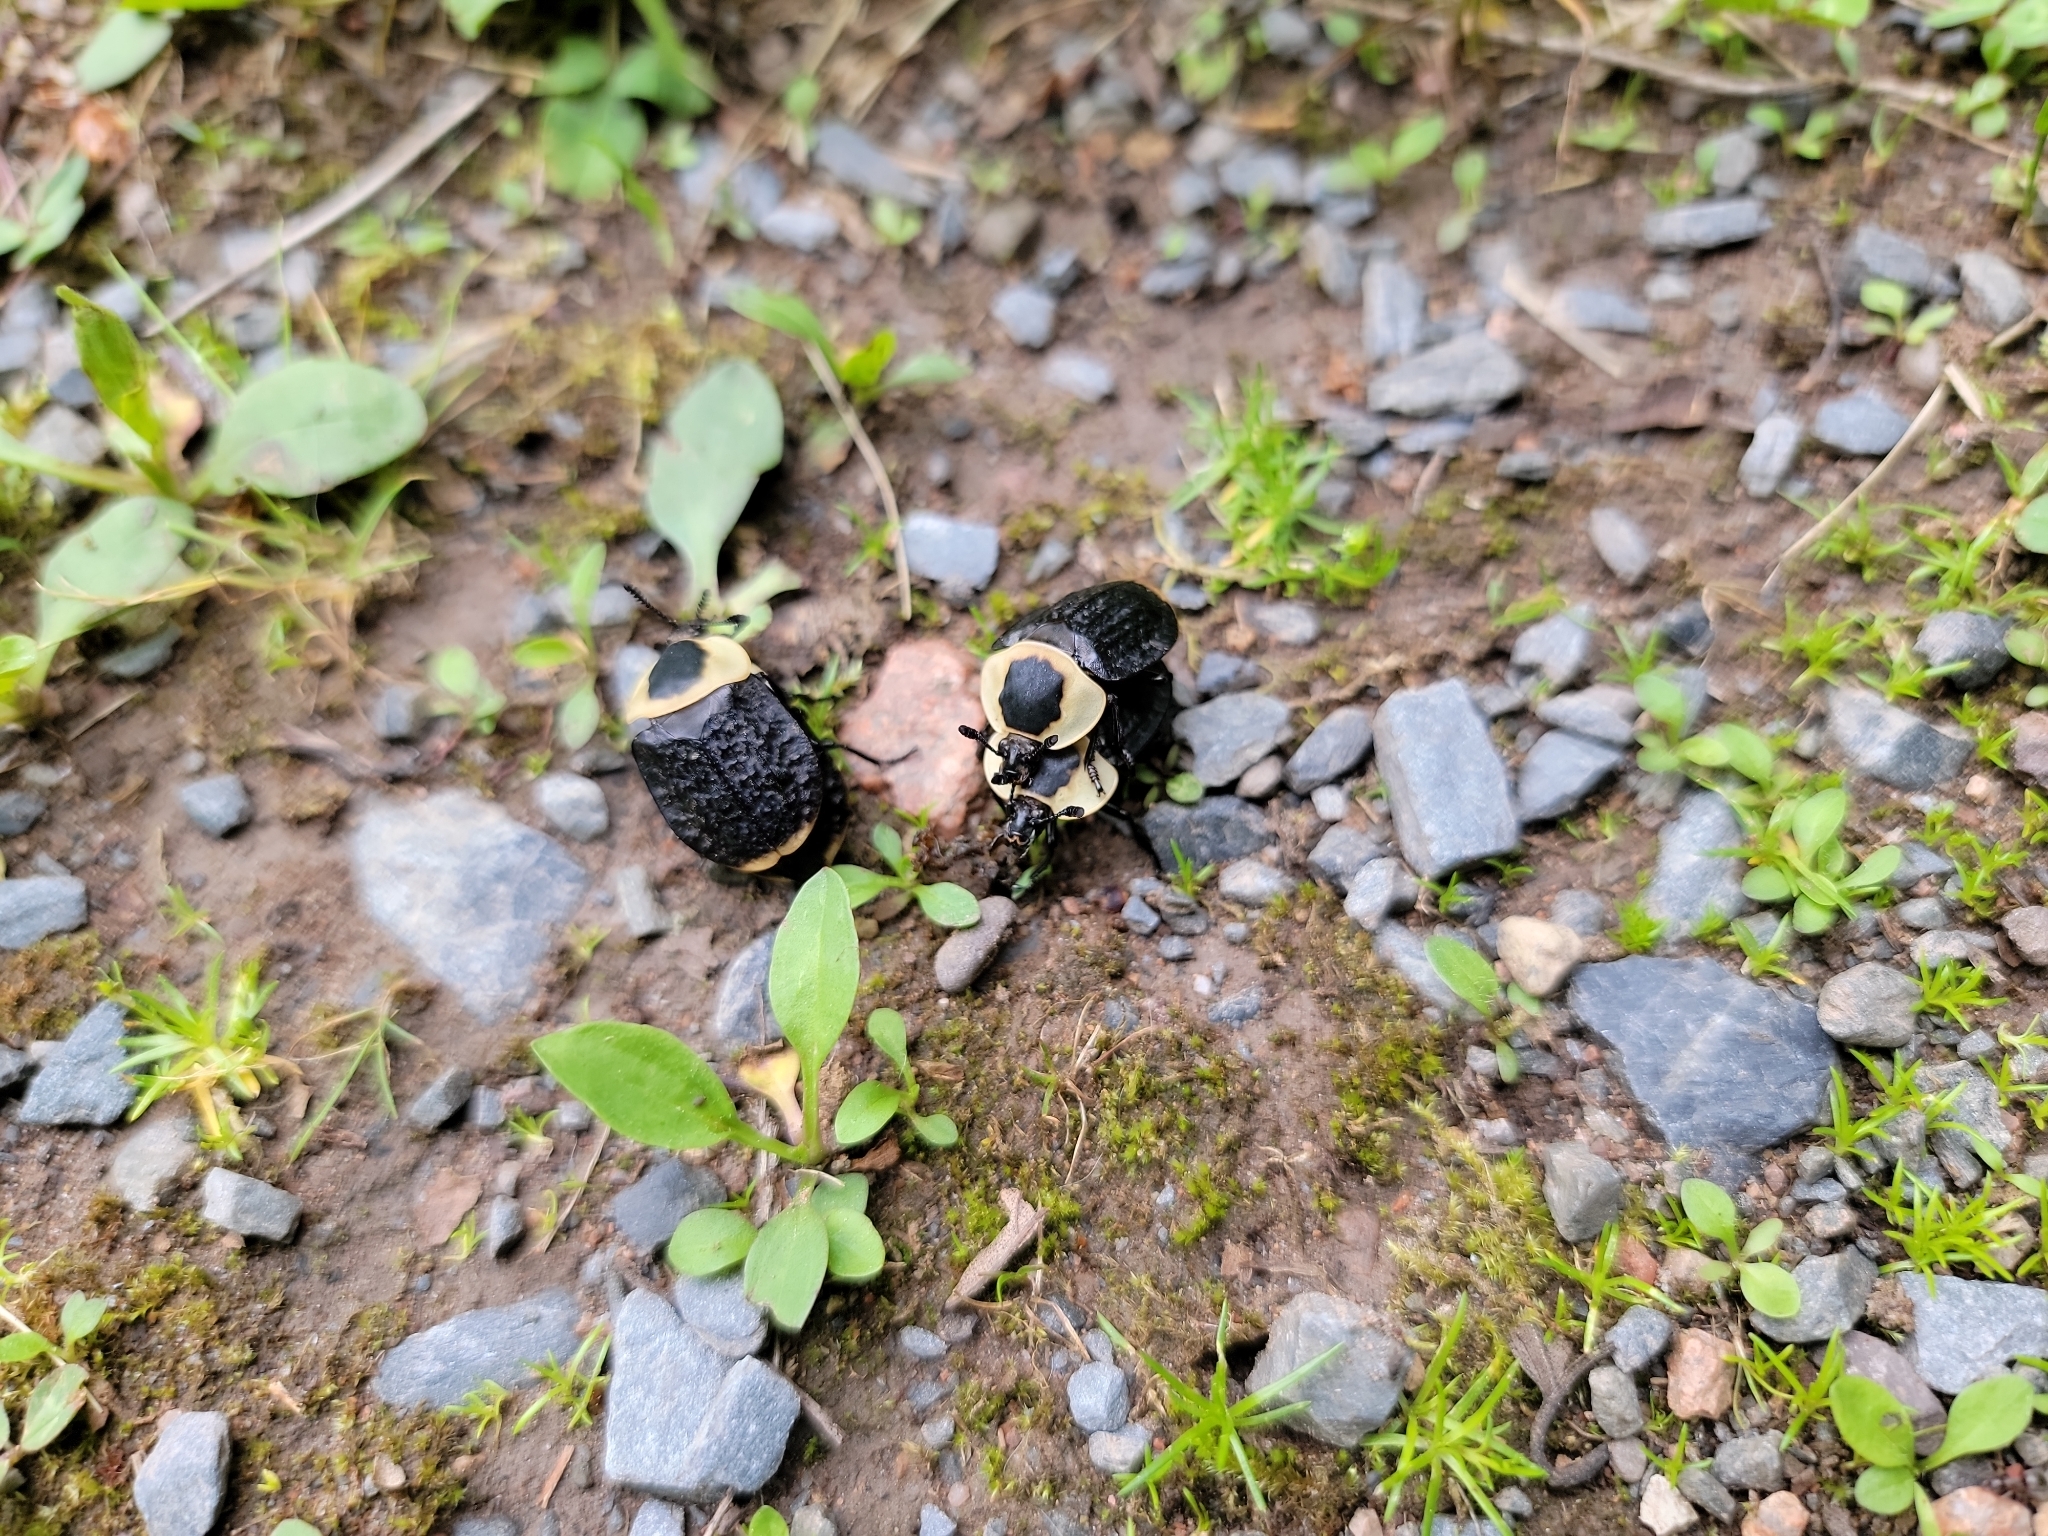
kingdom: Animalia
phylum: Arthropoda
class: Insecta
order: Coleoptera
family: Staphylinidae
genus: Necrophila
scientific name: Necrophila americana
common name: American carrion beetle
